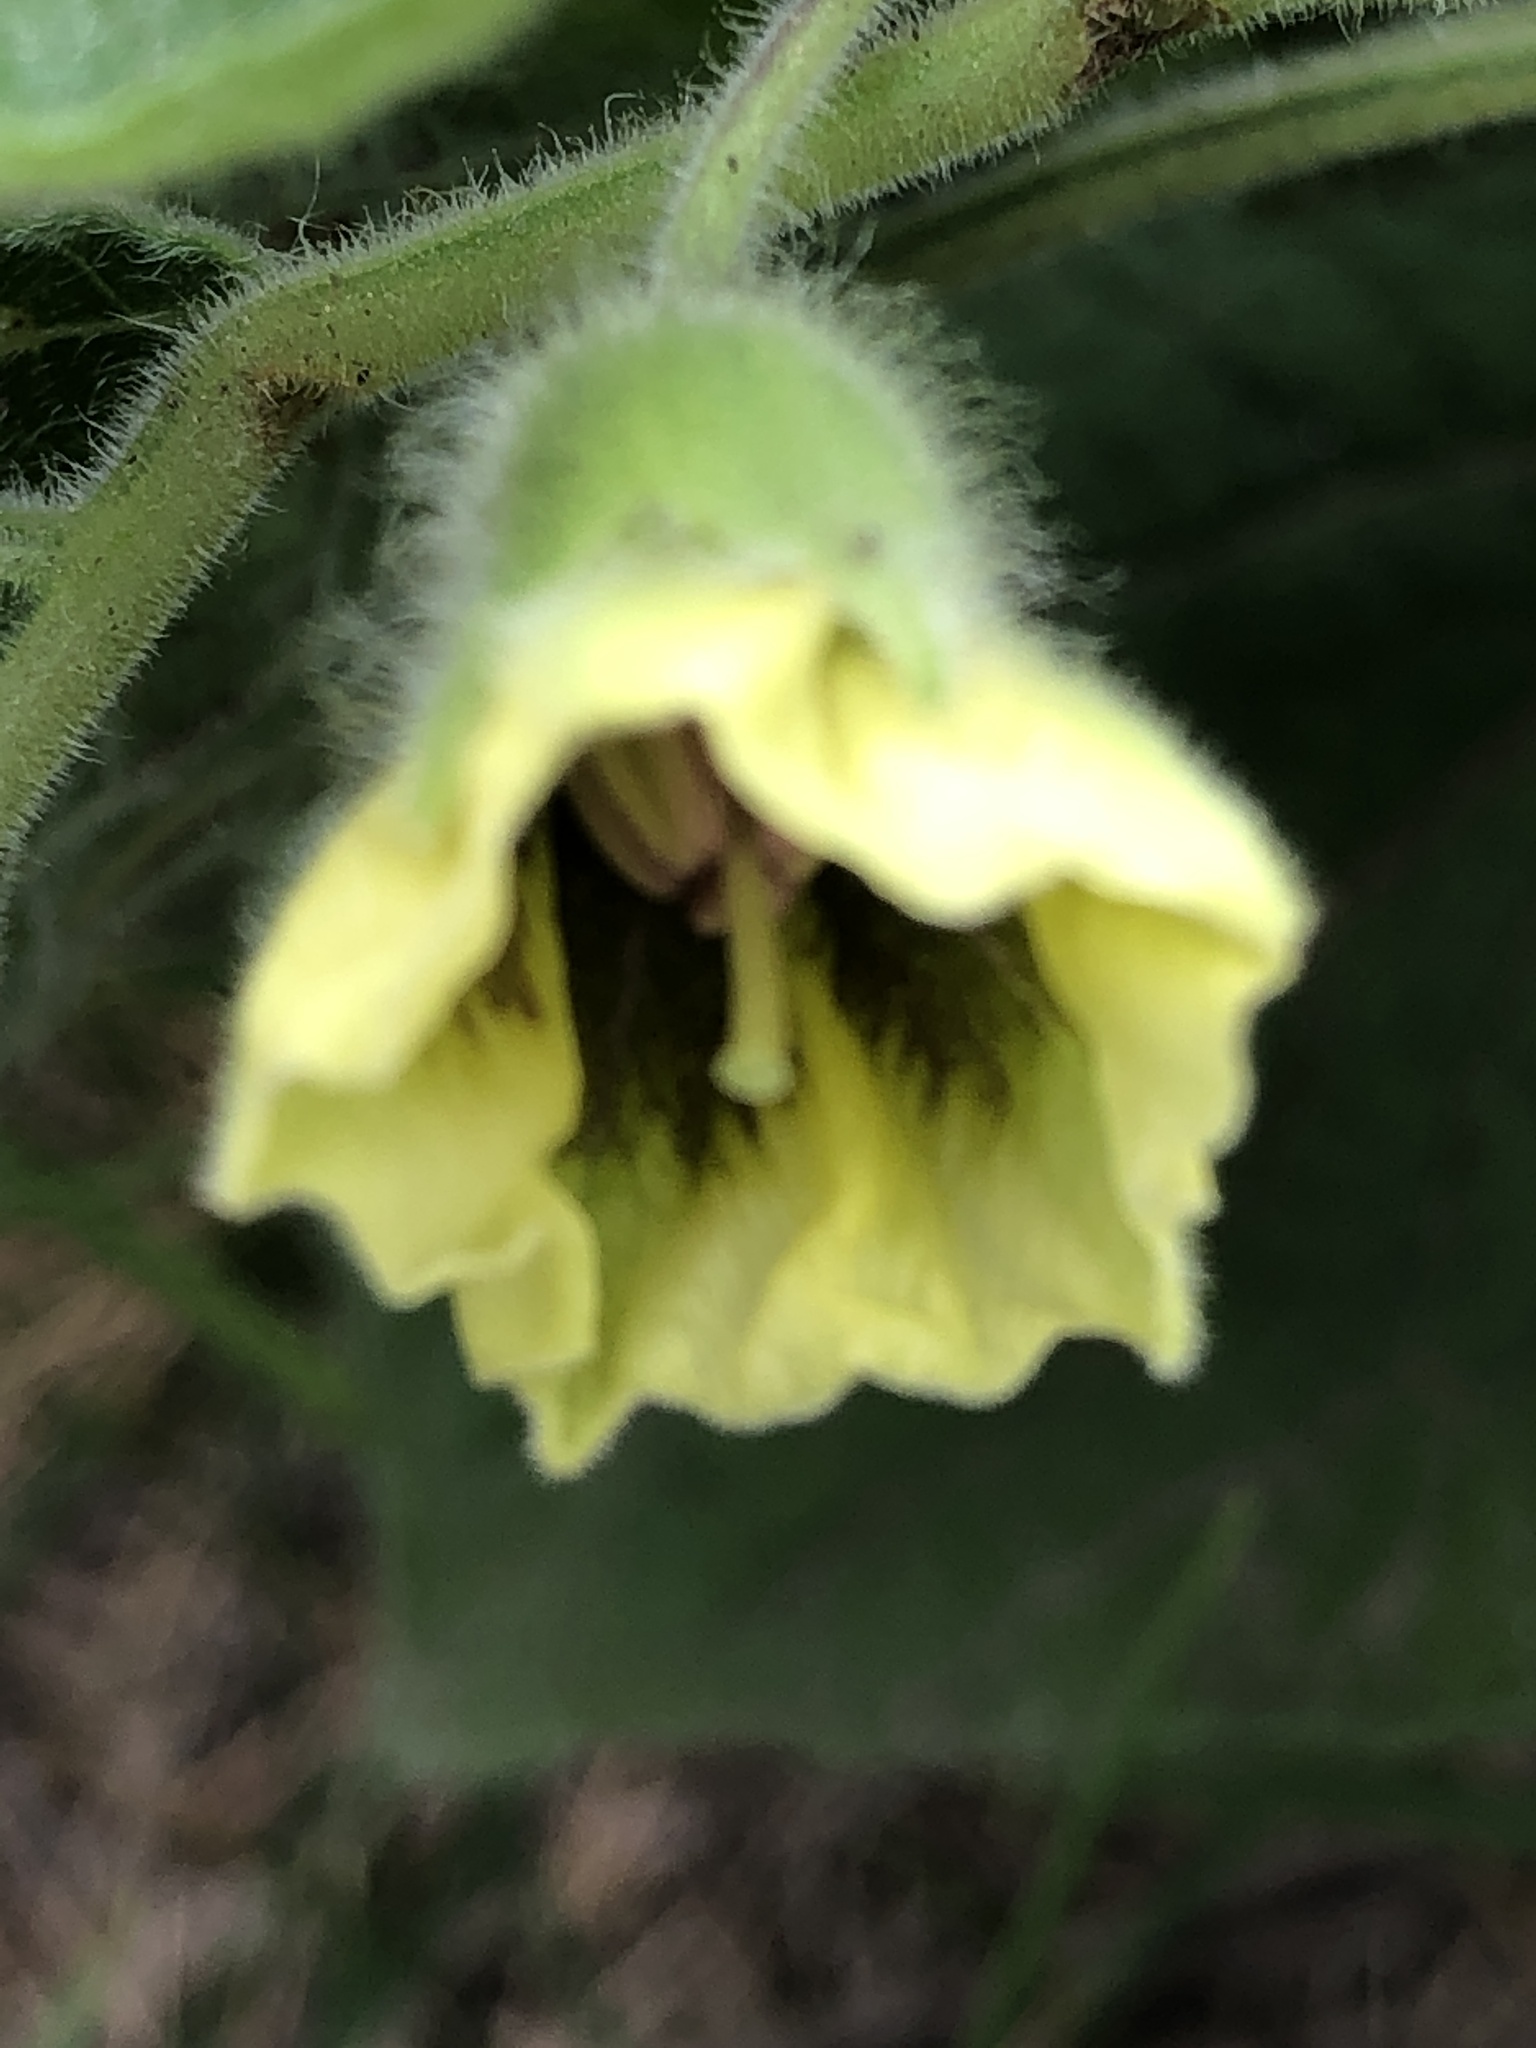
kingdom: Plantae
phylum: Tracheophyta
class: Magnoliopsida
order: Solanales
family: Solanaceae
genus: Physalis
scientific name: Physalis heterophylla
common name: Clammy ground-cherry
